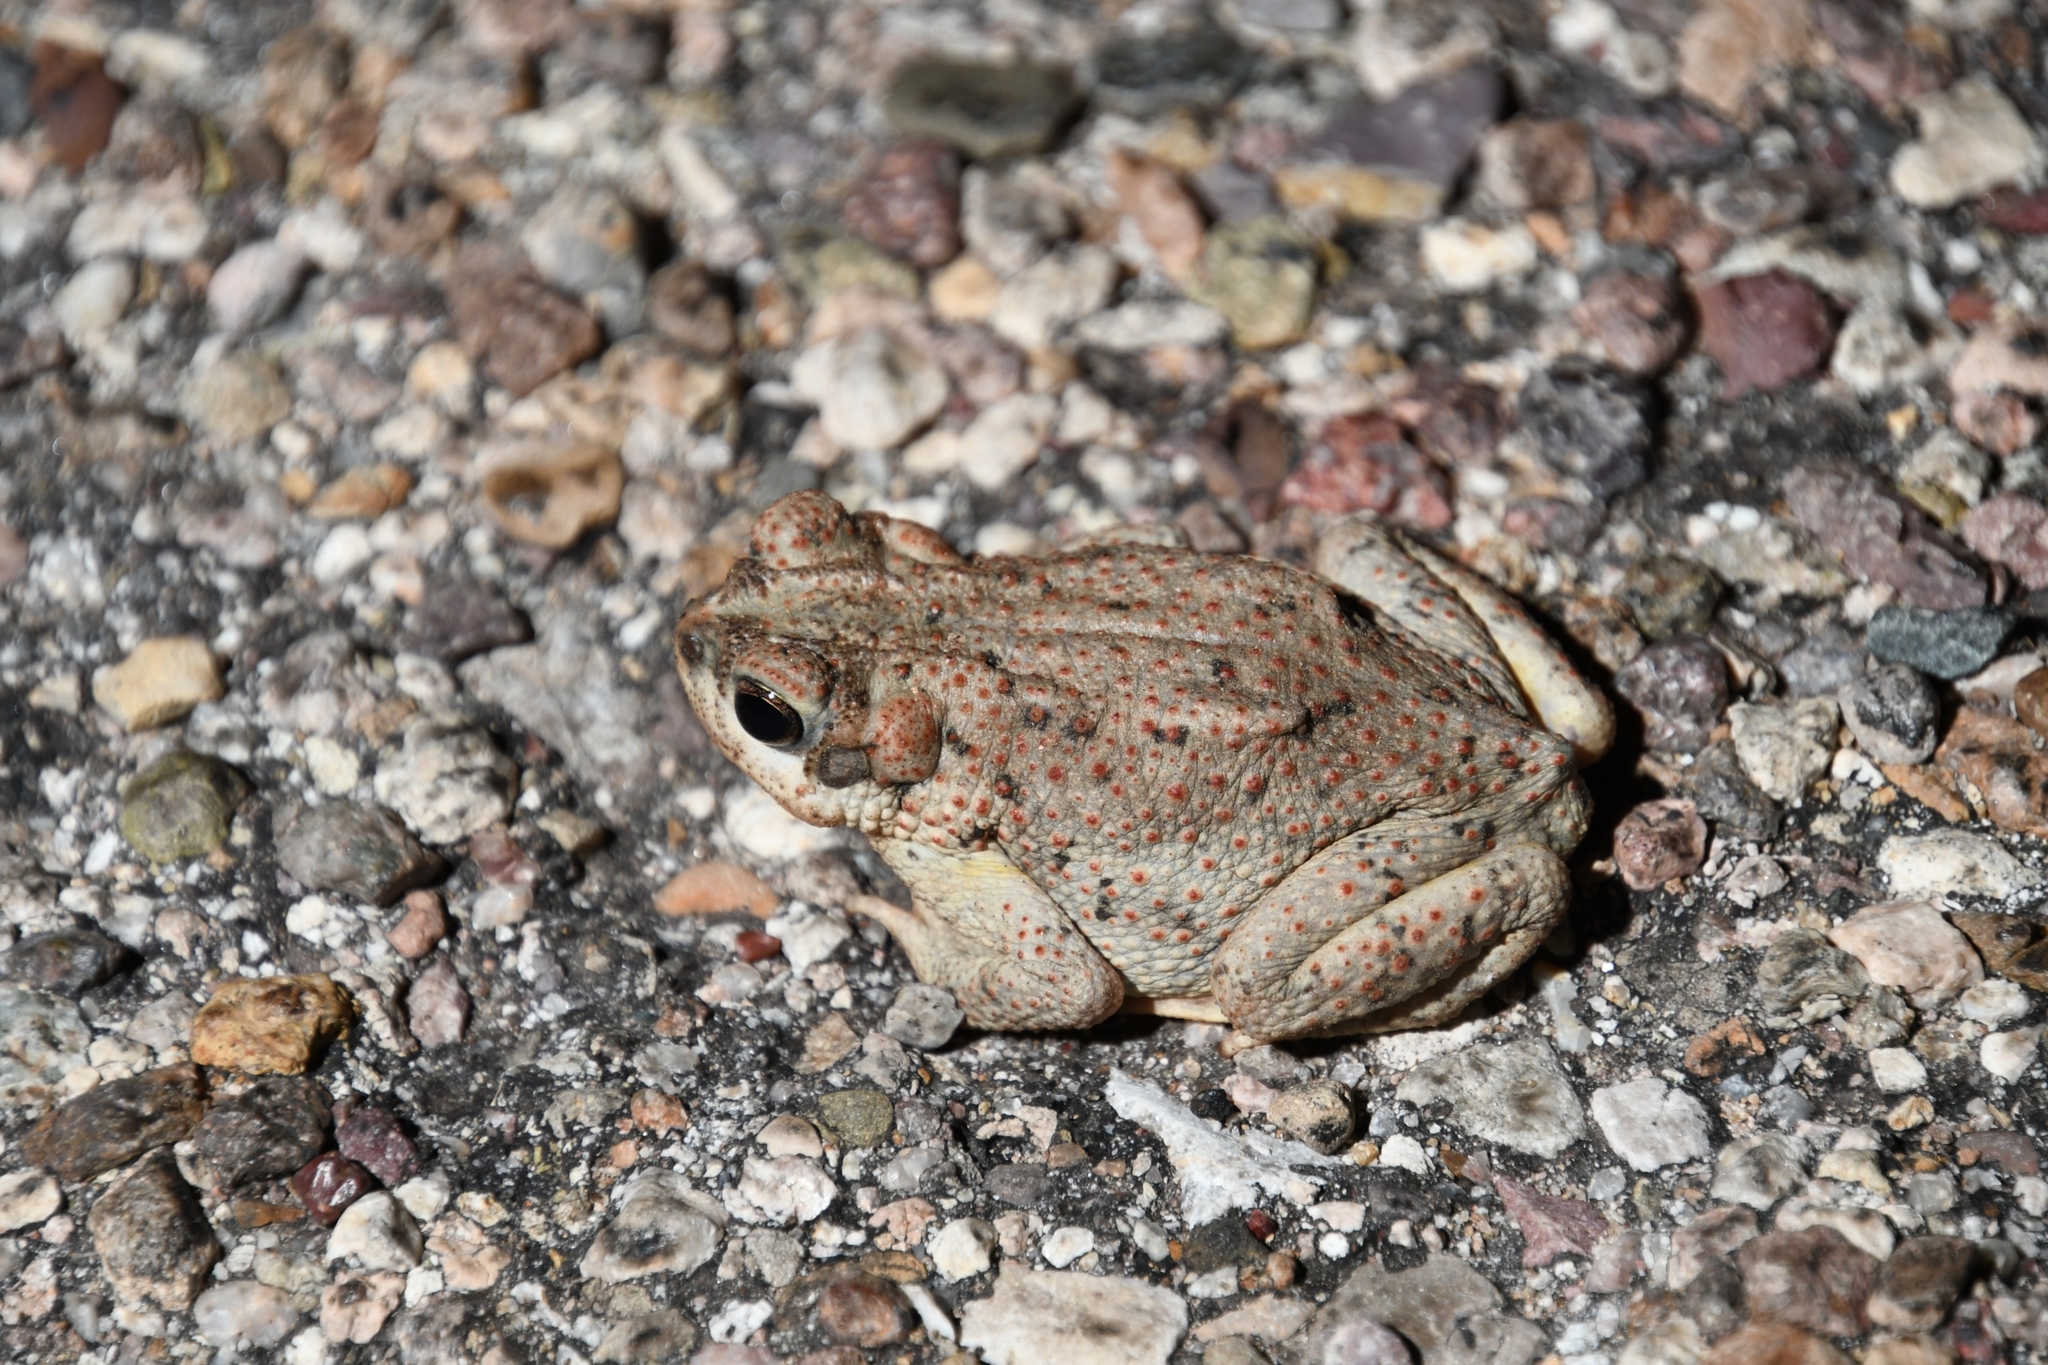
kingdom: Animalia
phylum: Chordata
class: Amphibia
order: Anura
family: Bufonidae
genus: Anaxyrus
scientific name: Anaxyrus punctatus
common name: Red-spotted toad
